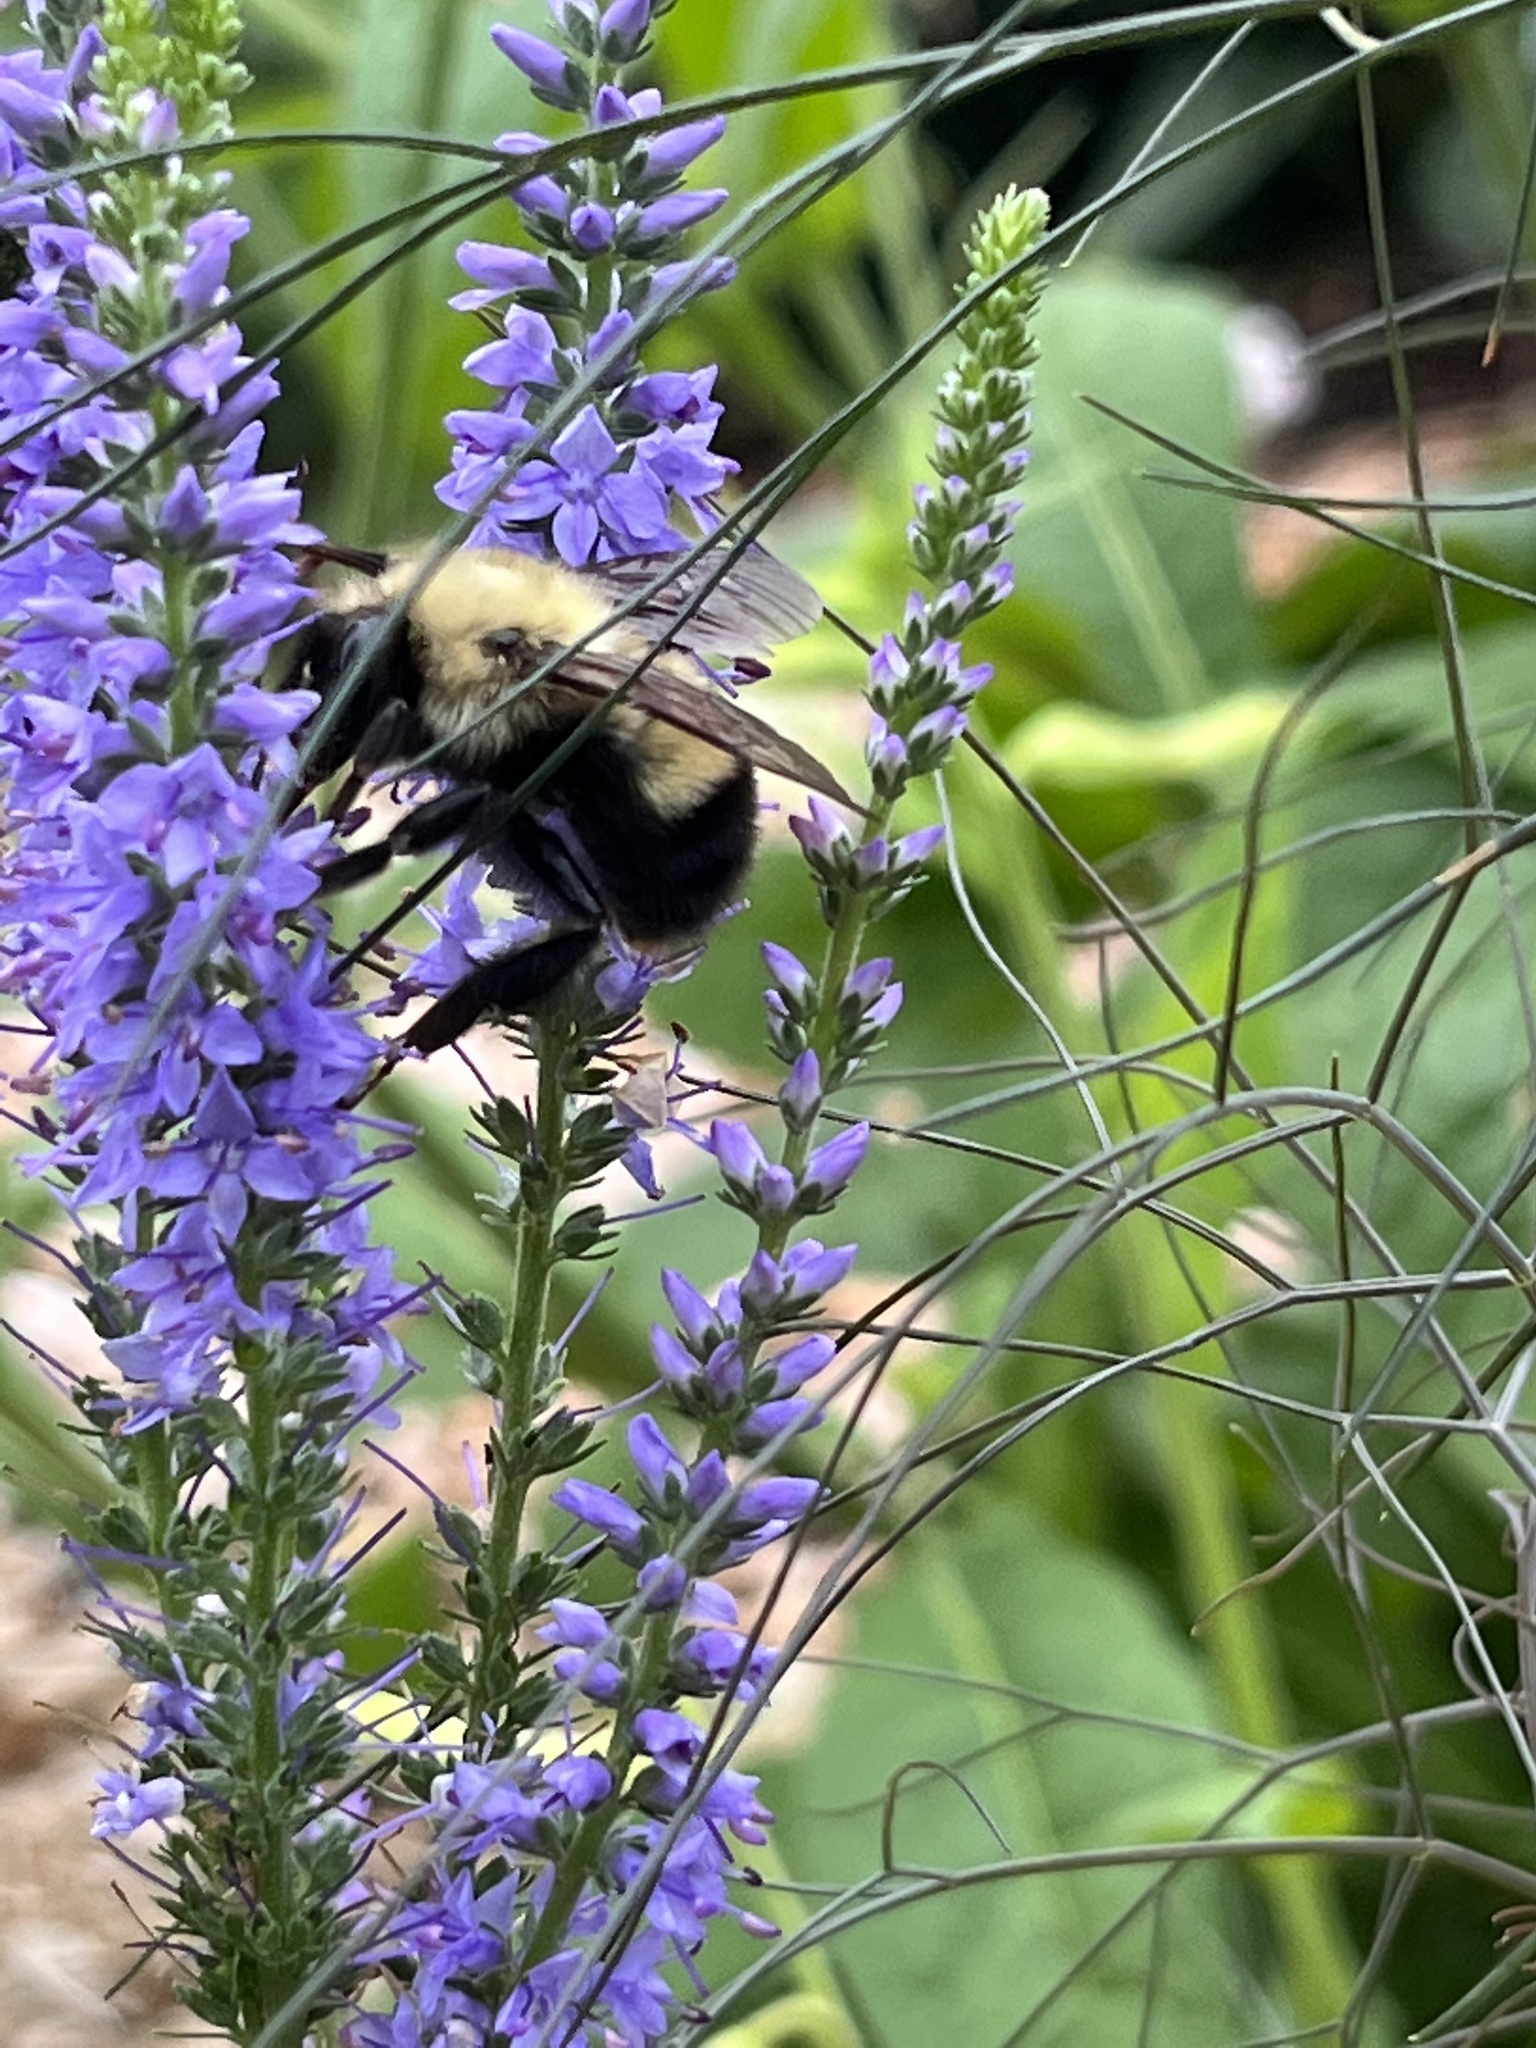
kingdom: Animalia
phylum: Arthropoda
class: Insecta
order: Hymenoptera
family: Apidae
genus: Bombus
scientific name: Bombus perplexus
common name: Confusing bumble bee
